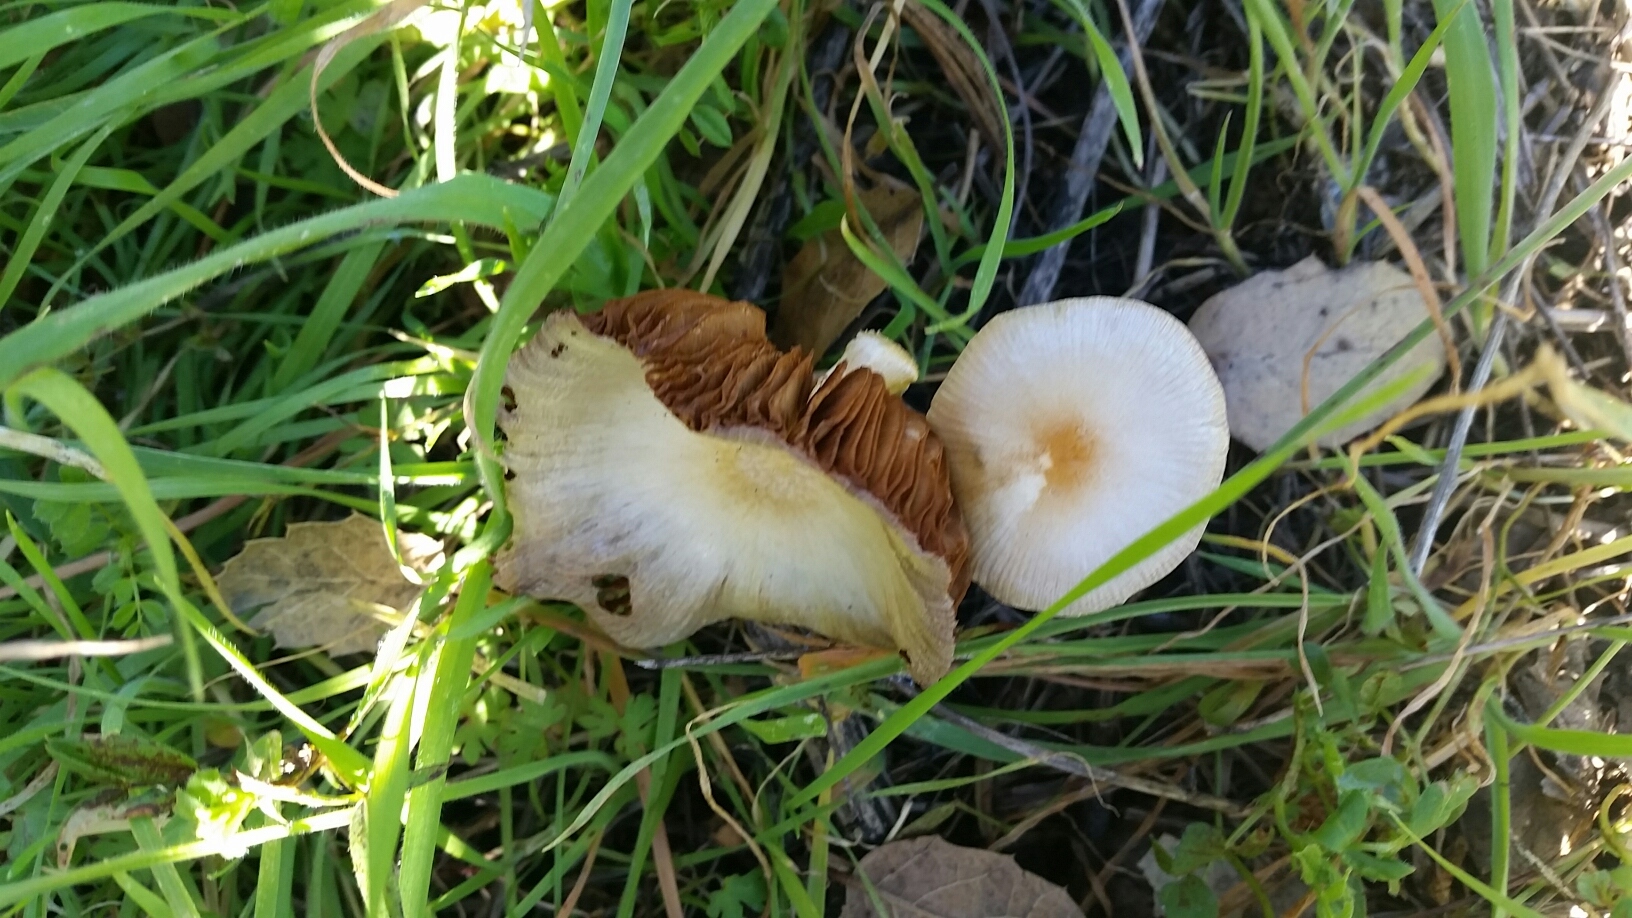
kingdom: Fungi
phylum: Basidiomycota
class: Agaricomycetes
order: Agaricales
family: Bolbitiaceae
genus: Bolbitius
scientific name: Bolbitius titubans
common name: Yellow fieldcap
